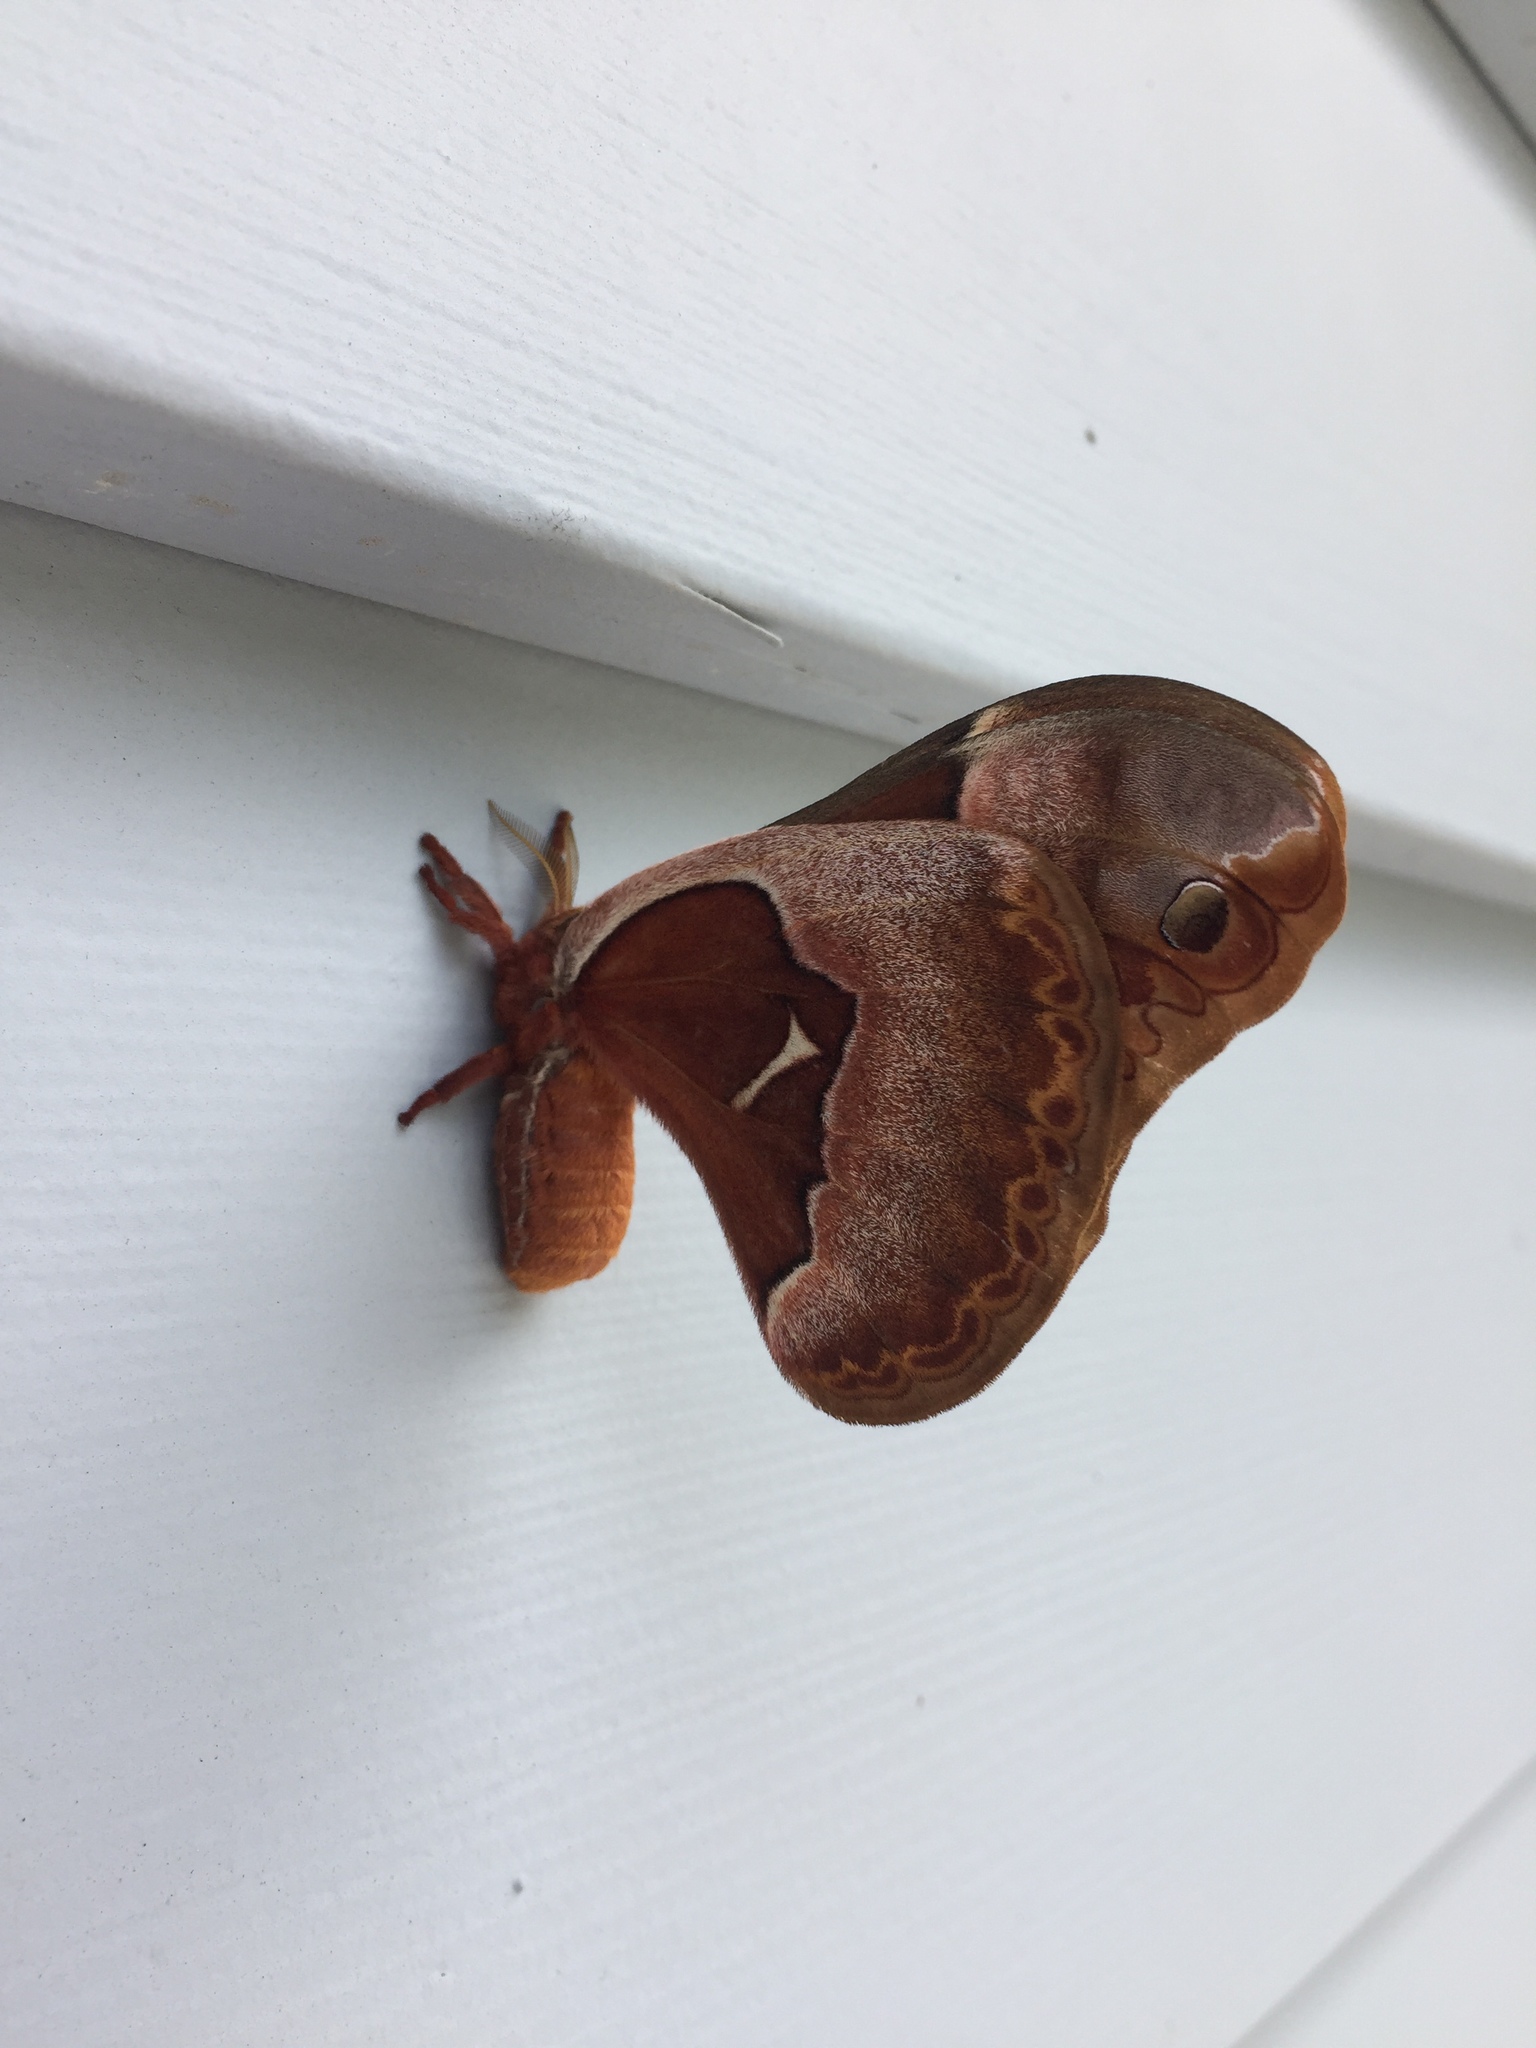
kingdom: Animalia
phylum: Arthropoda
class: Insecta
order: Lepidoptera
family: Saturniidae
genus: Callosamia
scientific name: Callosamia promethea
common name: Promethea silkmoth
